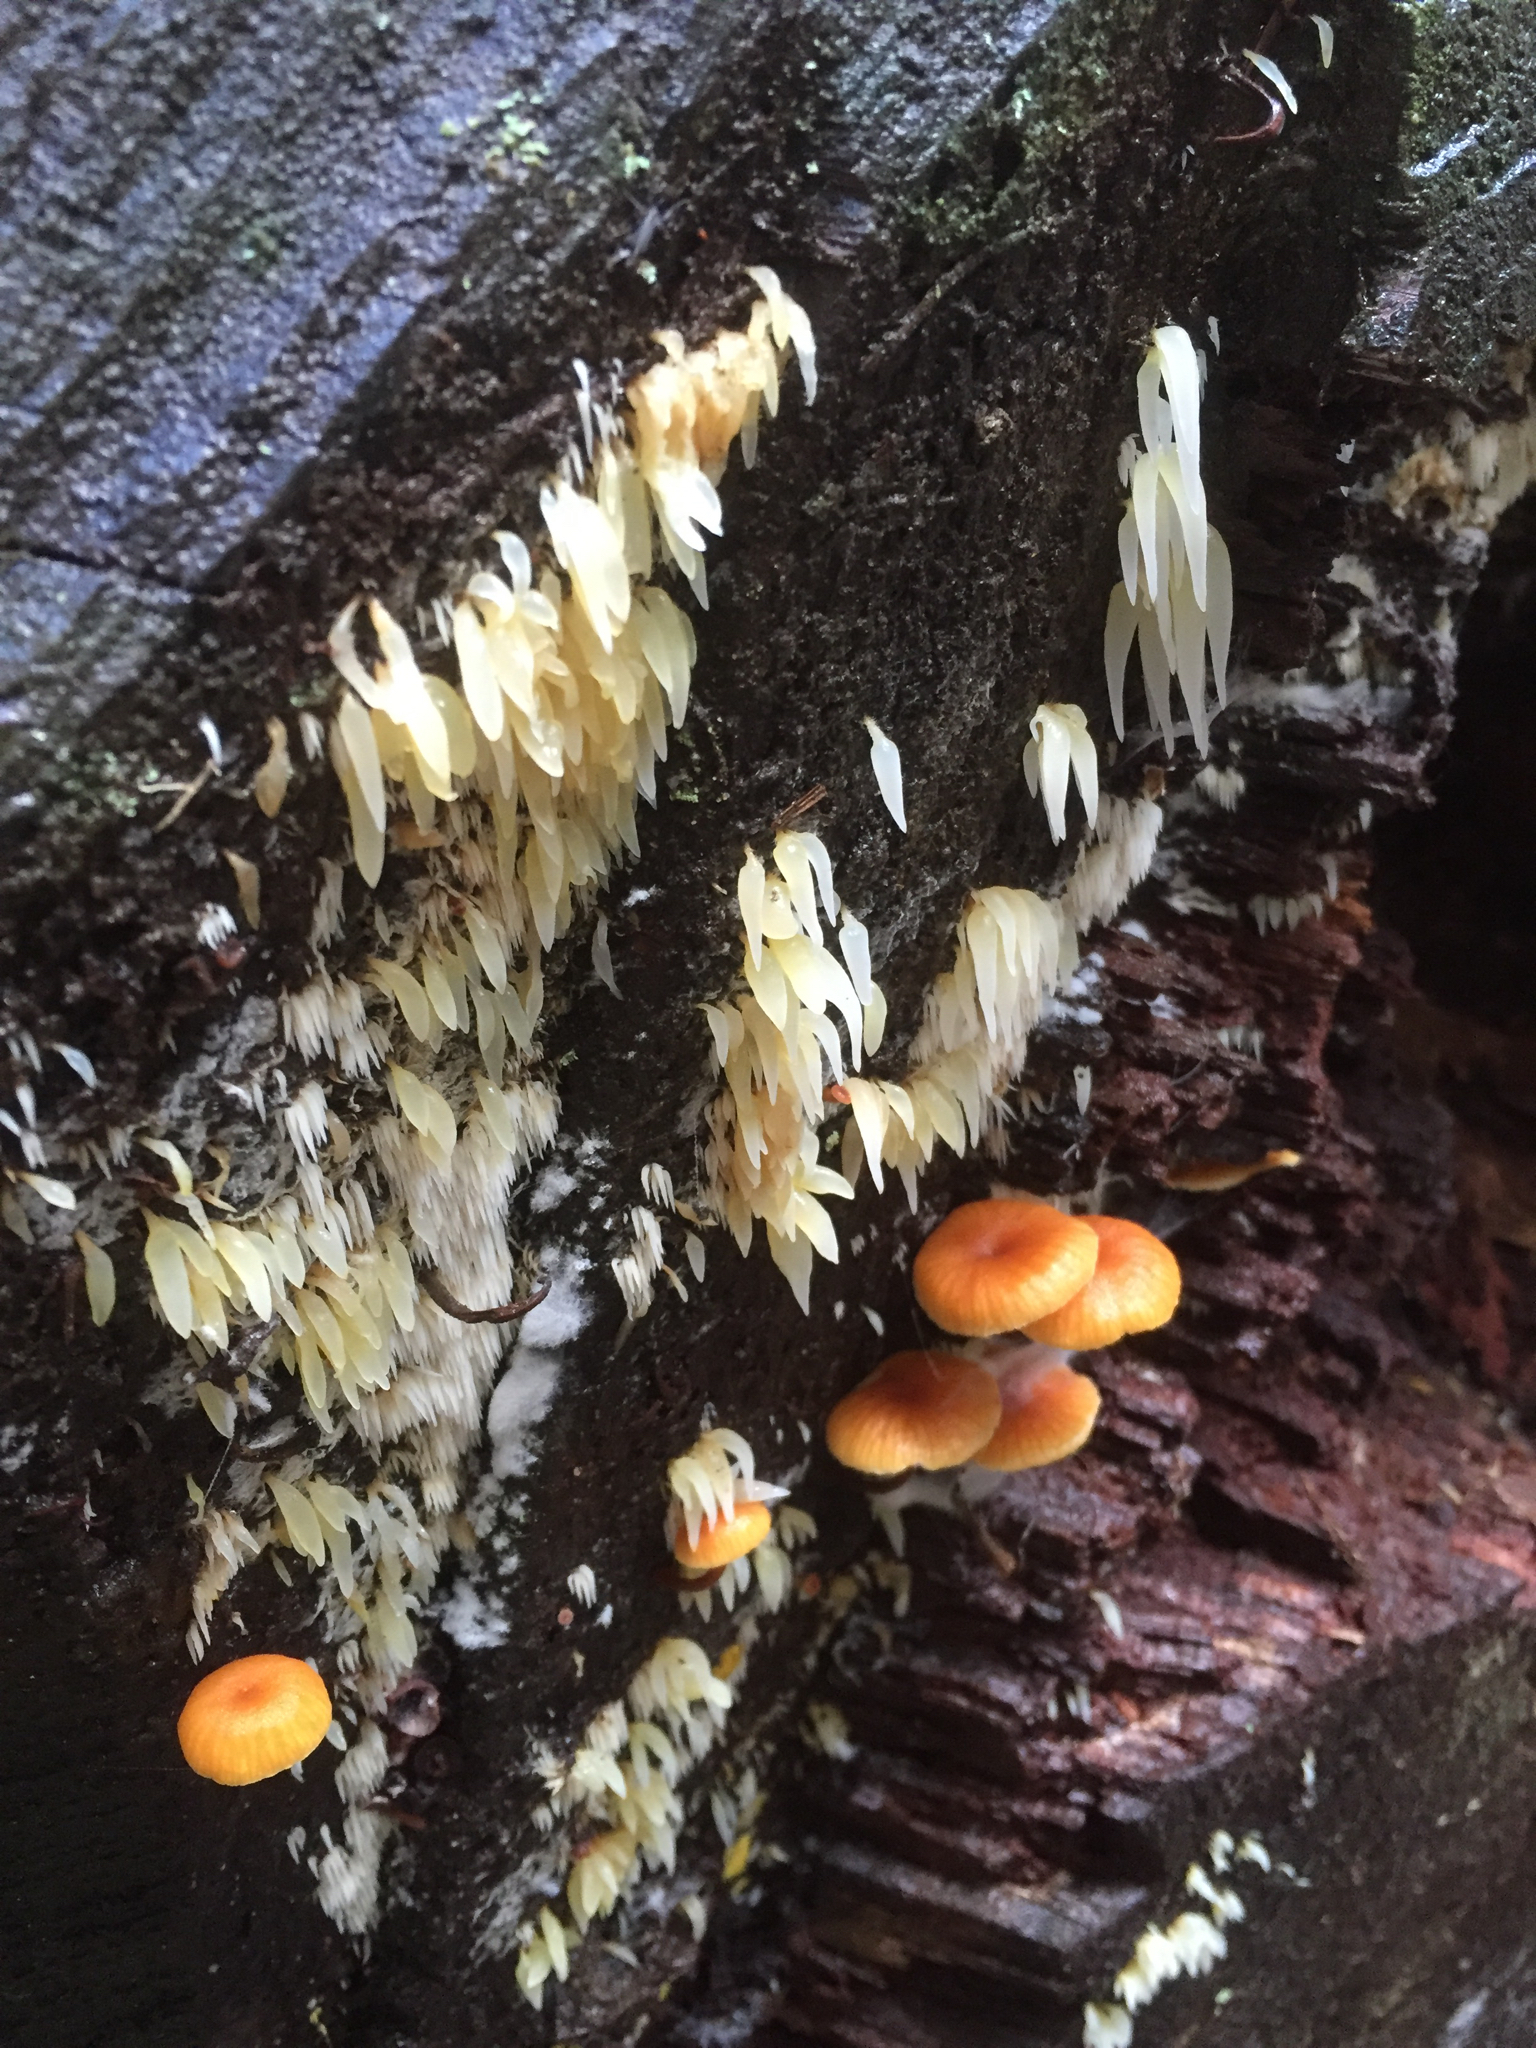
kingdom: Fungi
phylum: Basidiomycota
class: Agaricomycetes
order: Agaricales
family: Clavariaceae
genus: Mucronella
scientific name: Mucronella bresadolae
